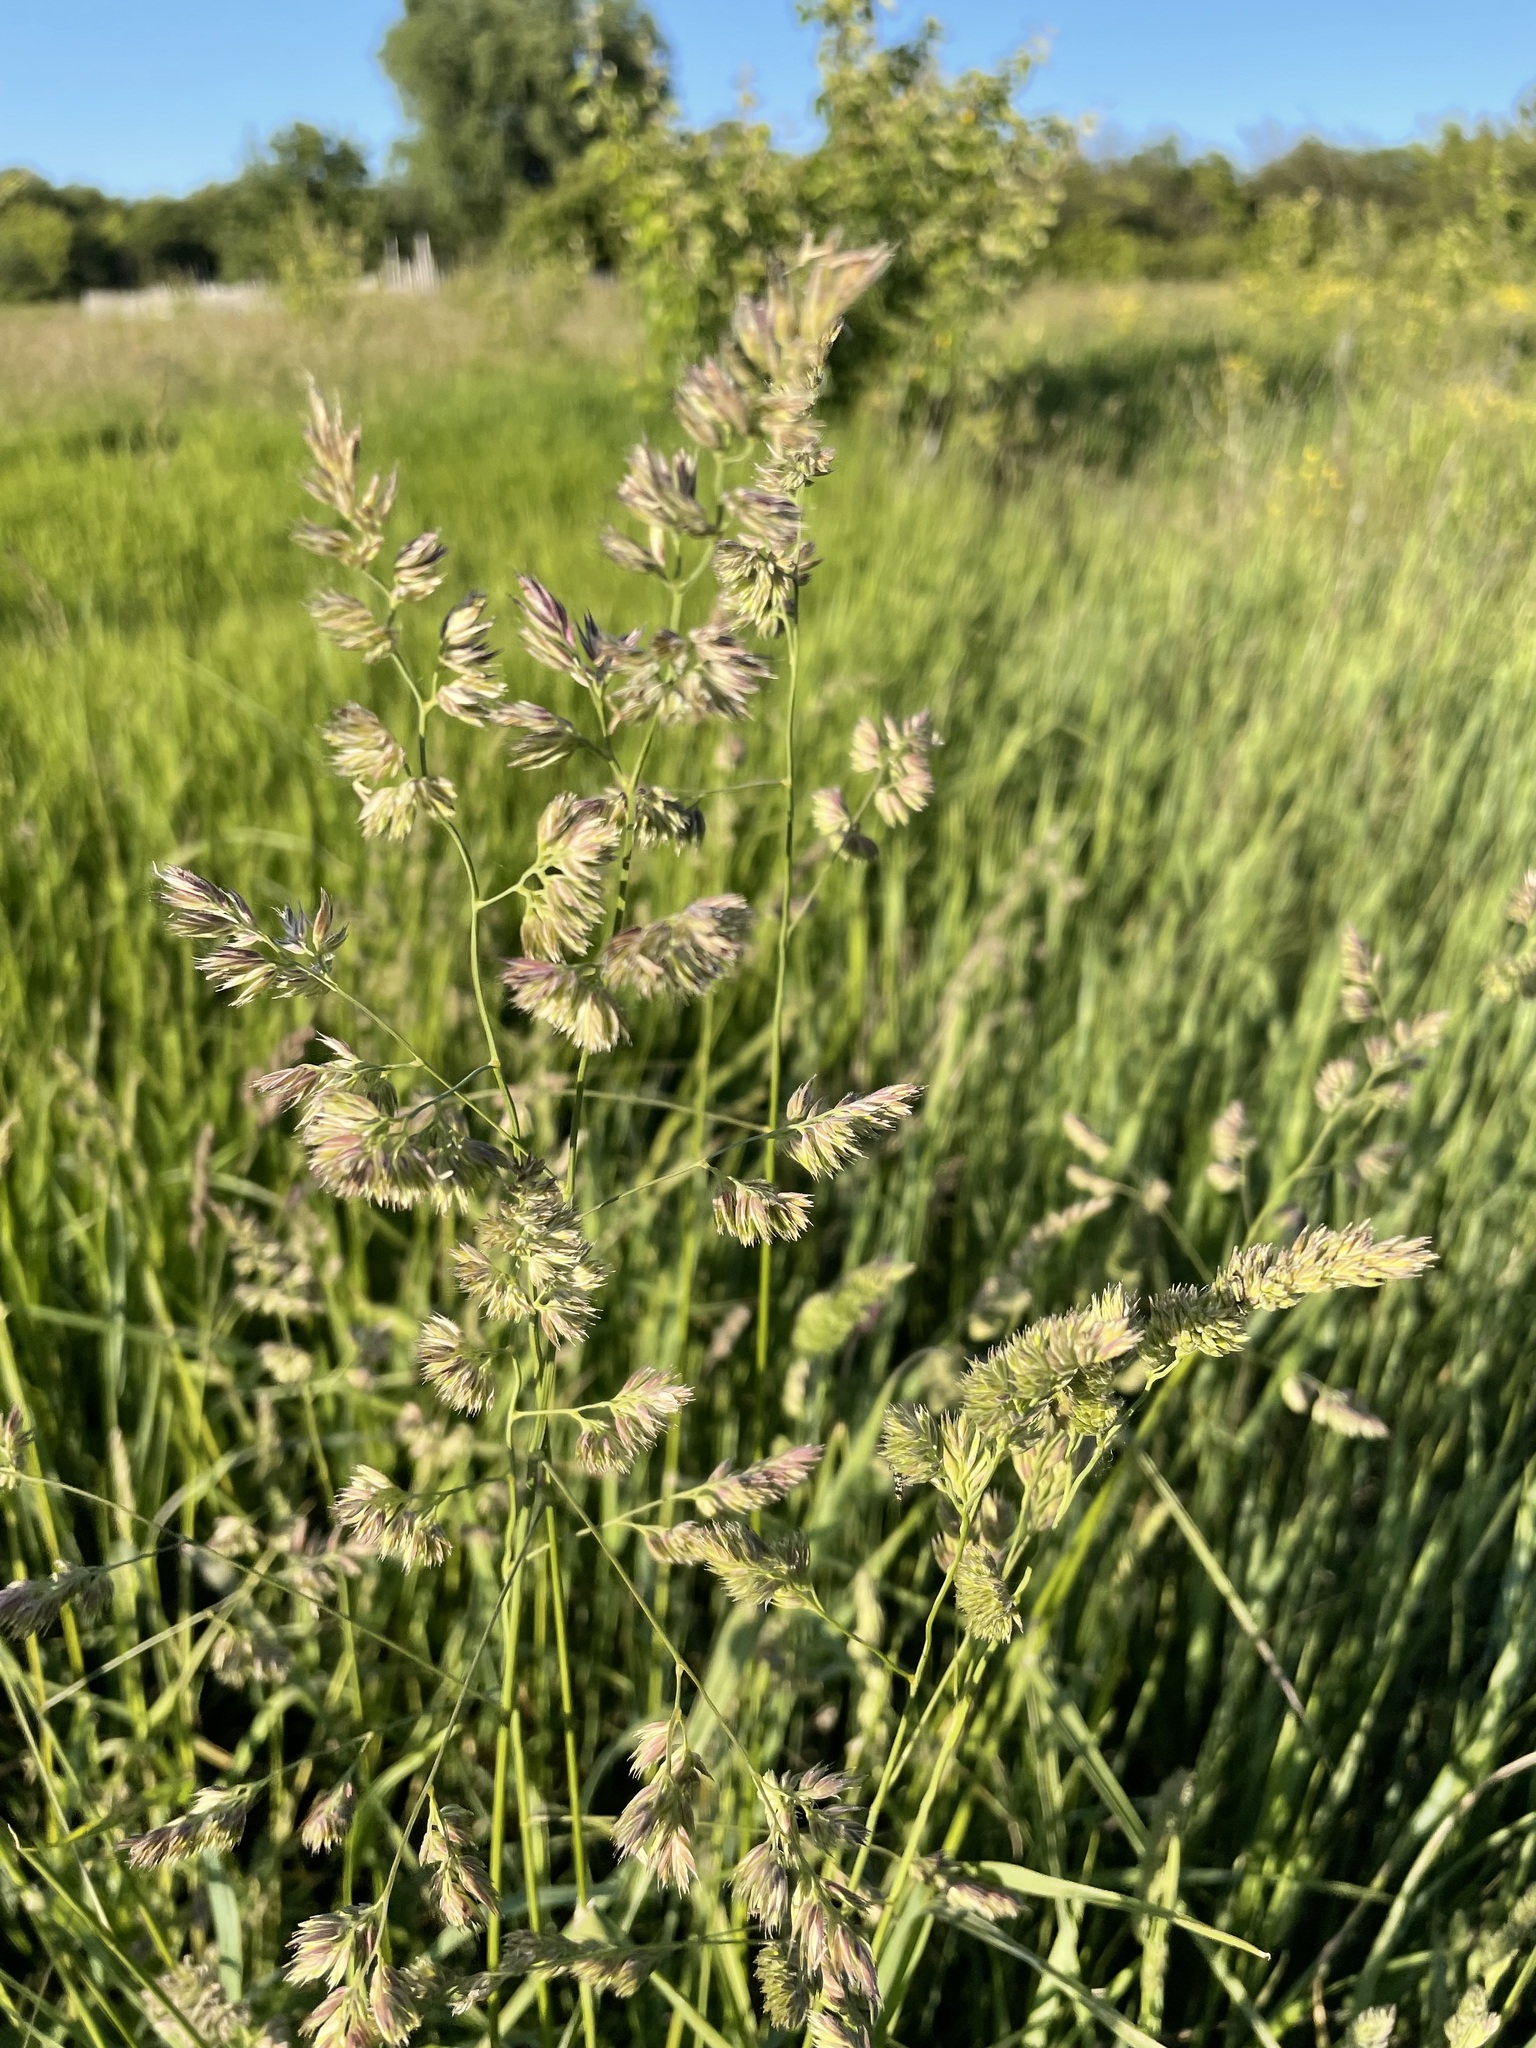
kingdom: Plantae
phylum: Tracheophyta
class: Liliopsida
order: Poales
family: Poaceae
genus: Dactylis
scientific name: Dactylis glomerata
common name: Orchardgrass
